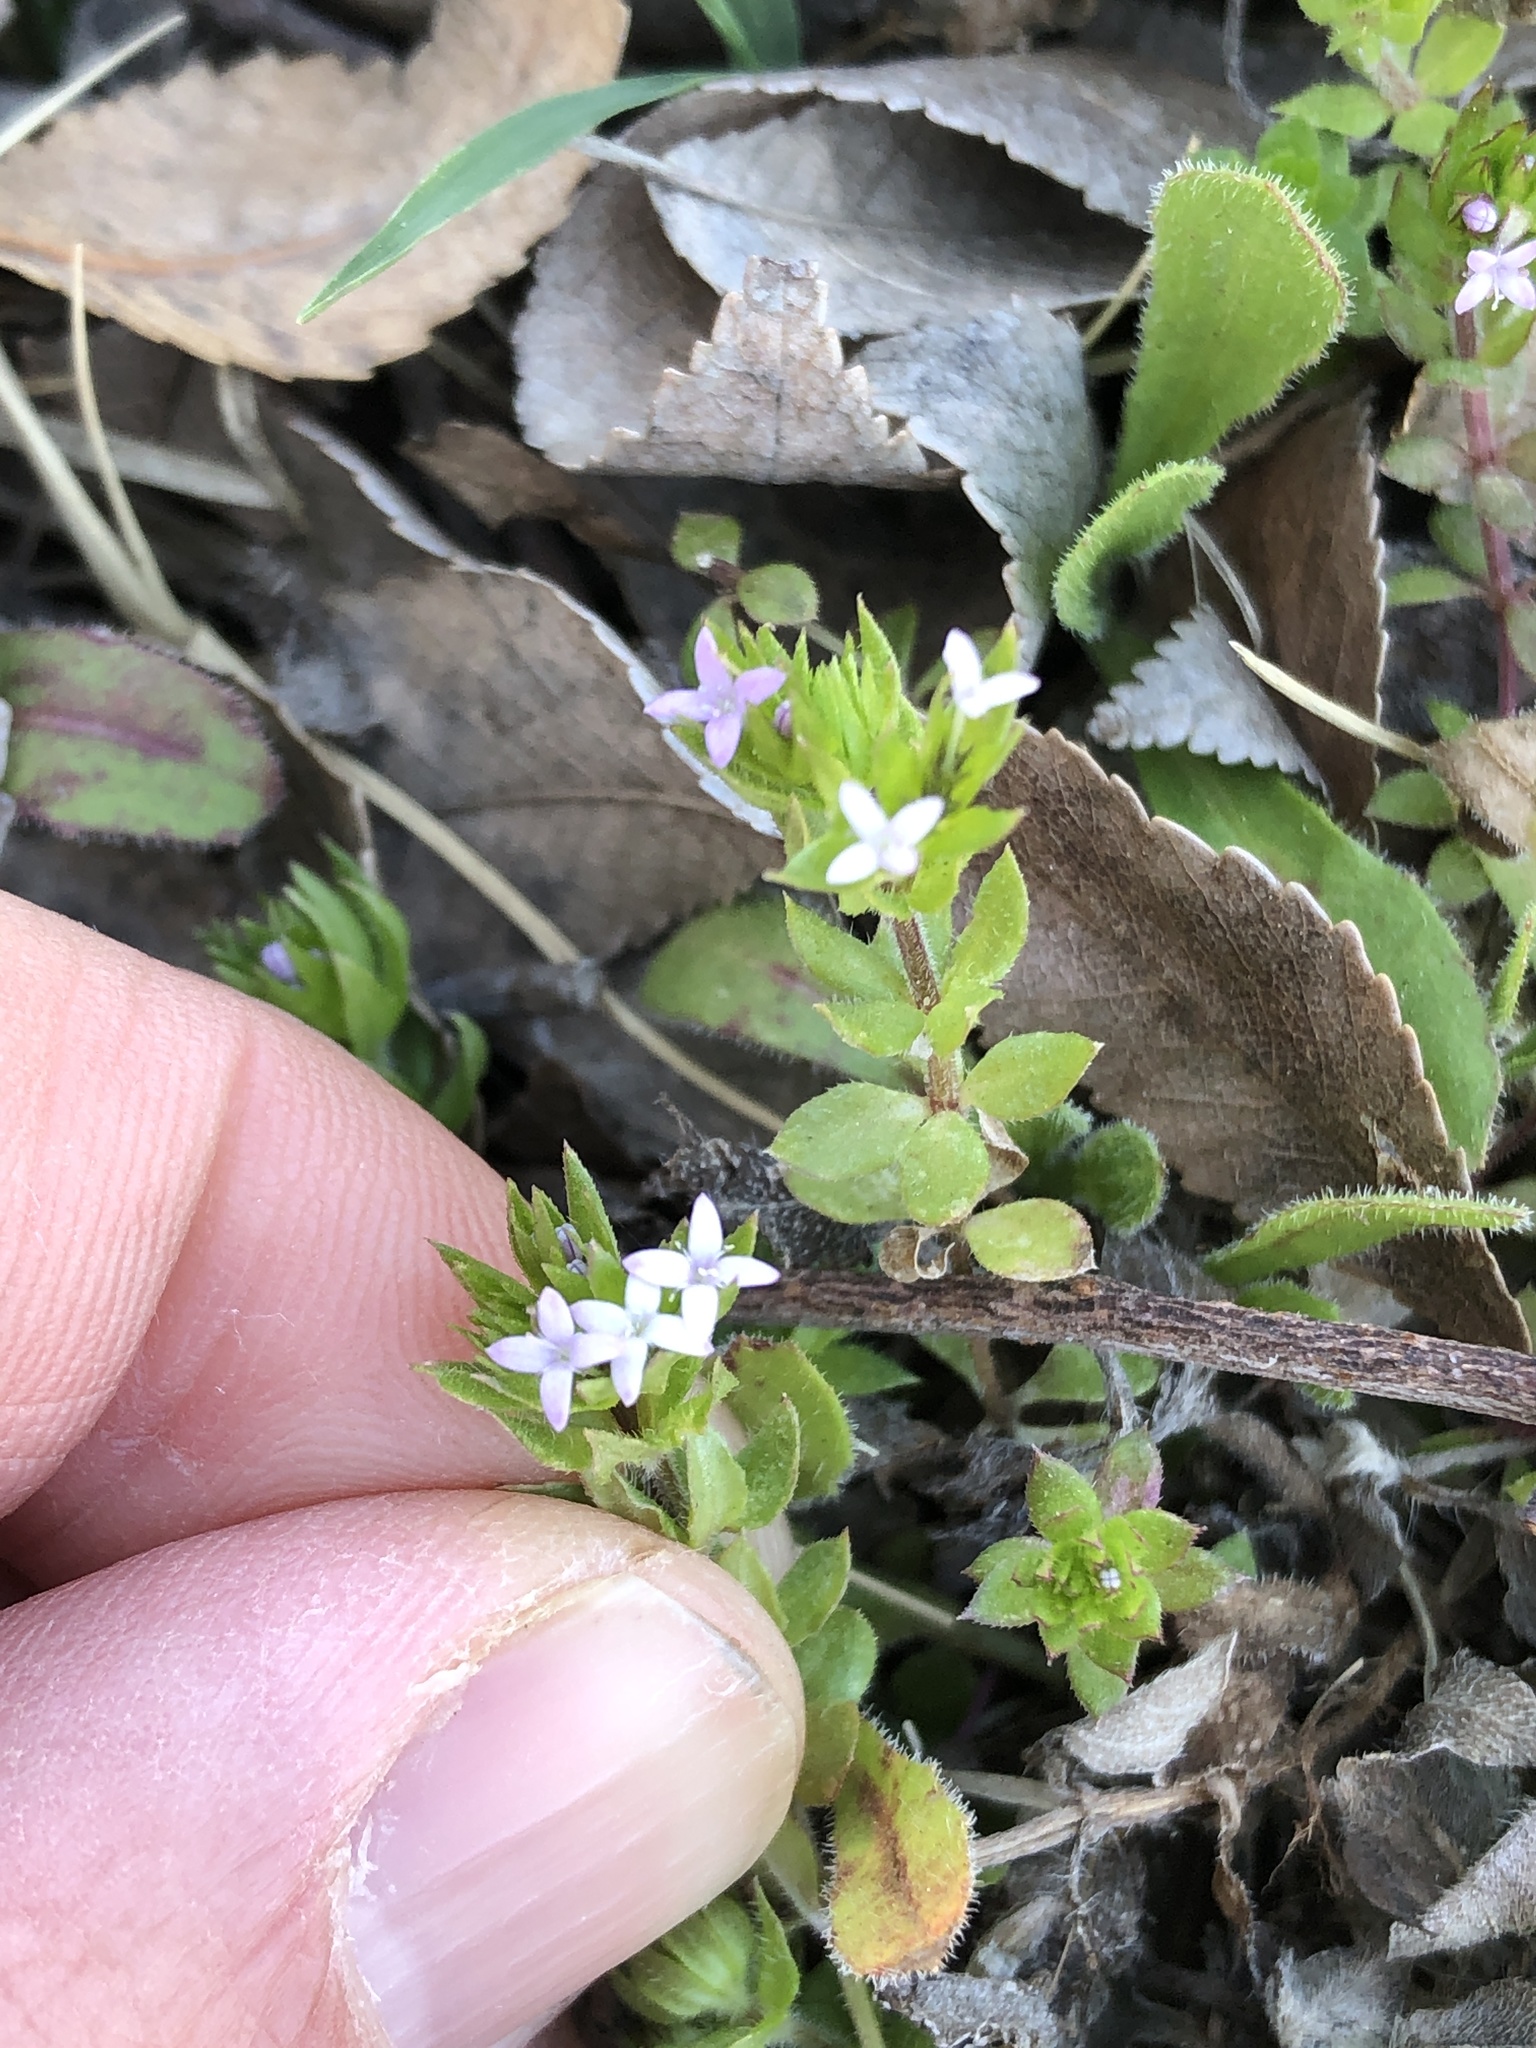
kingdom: Plantae
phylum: Tracheophyta
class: Magnoliopsida
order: Gentianales
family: Rubiaceae
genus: Sherardia
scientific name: Sherardia arvensis
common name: Field madder
